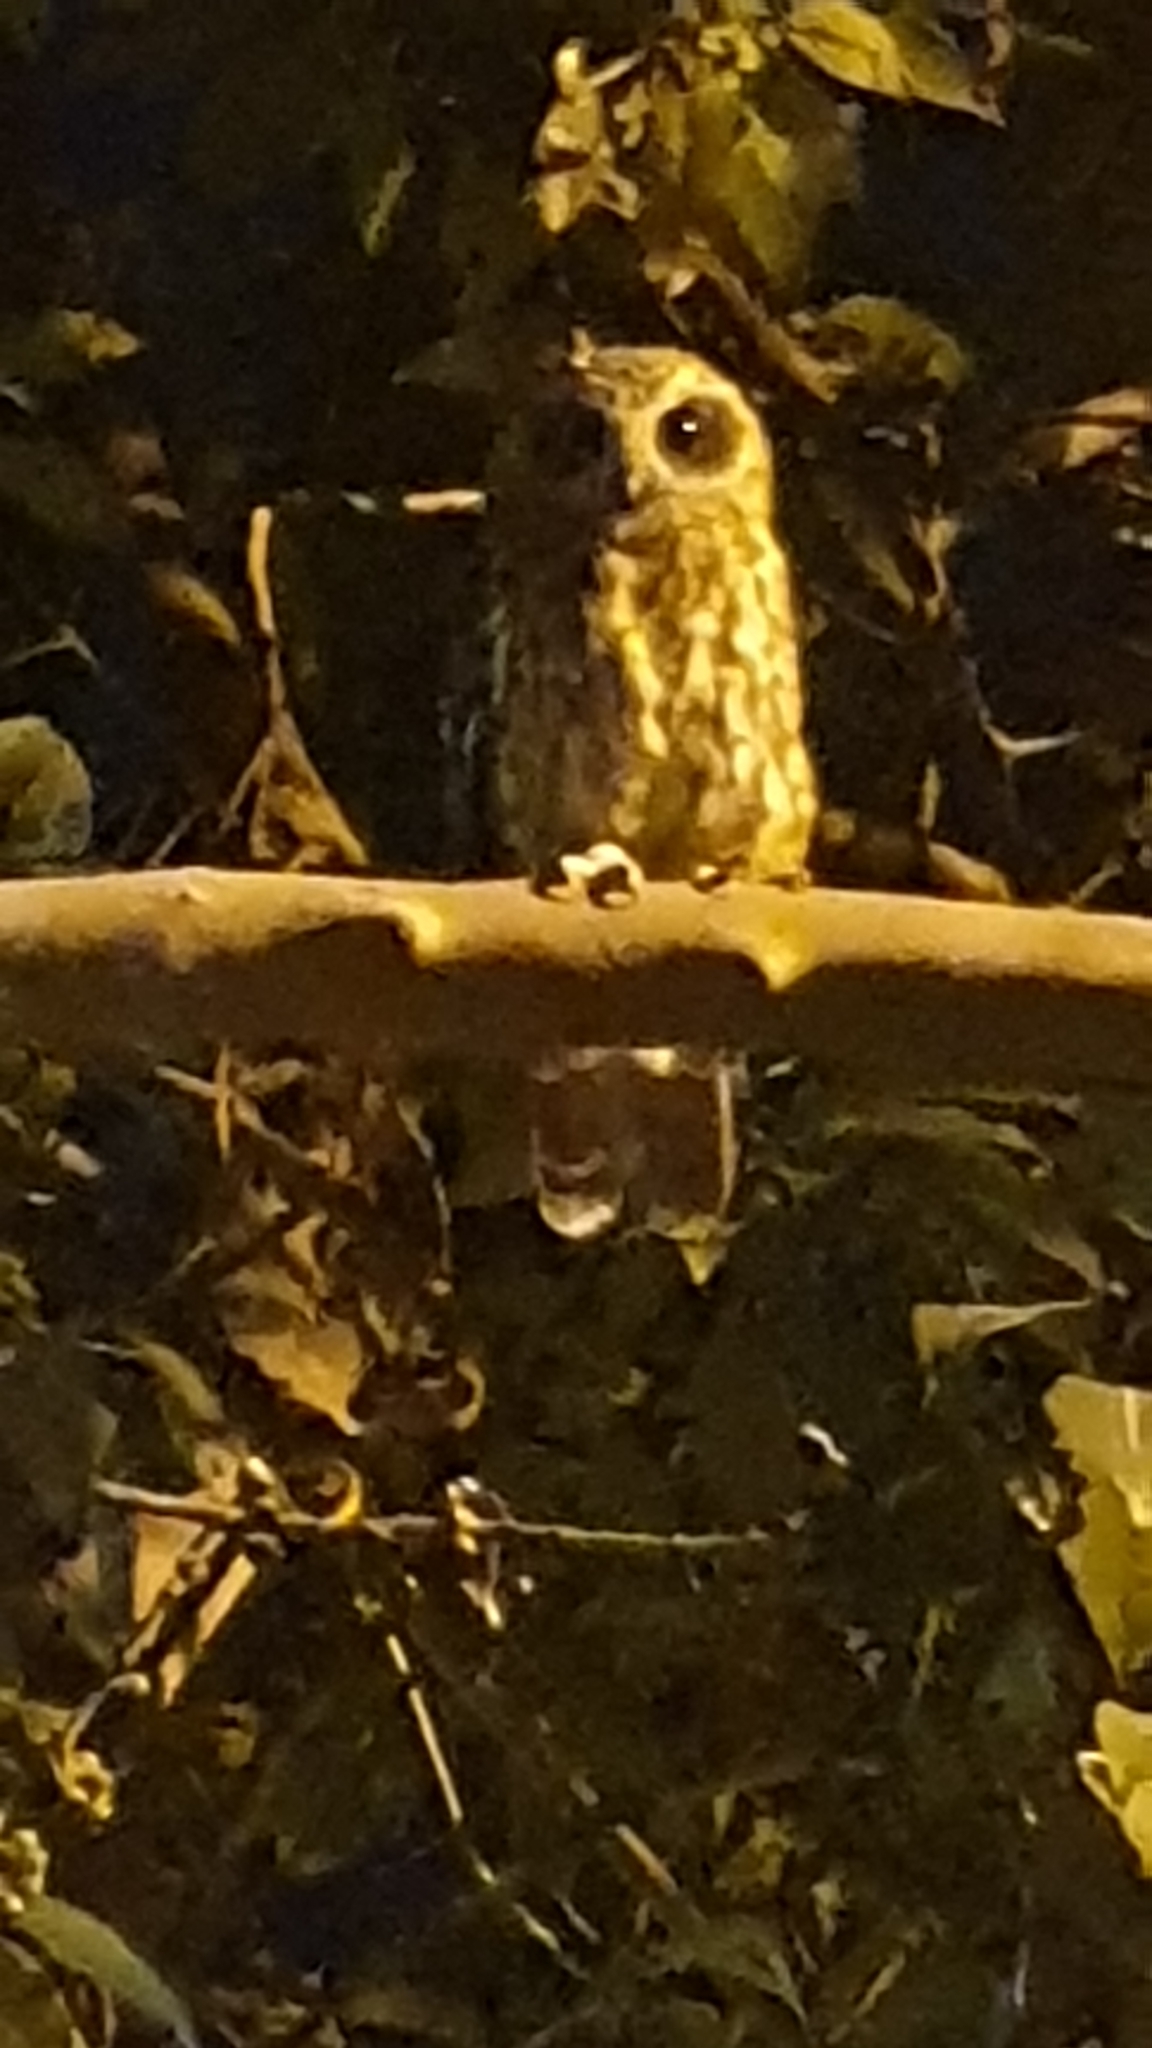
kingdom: Animalia
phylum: Chordata
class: Aves
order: Strigiformes
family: Strigidae
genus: Ninox
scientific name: Ninox boobook
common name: Southern boobook
